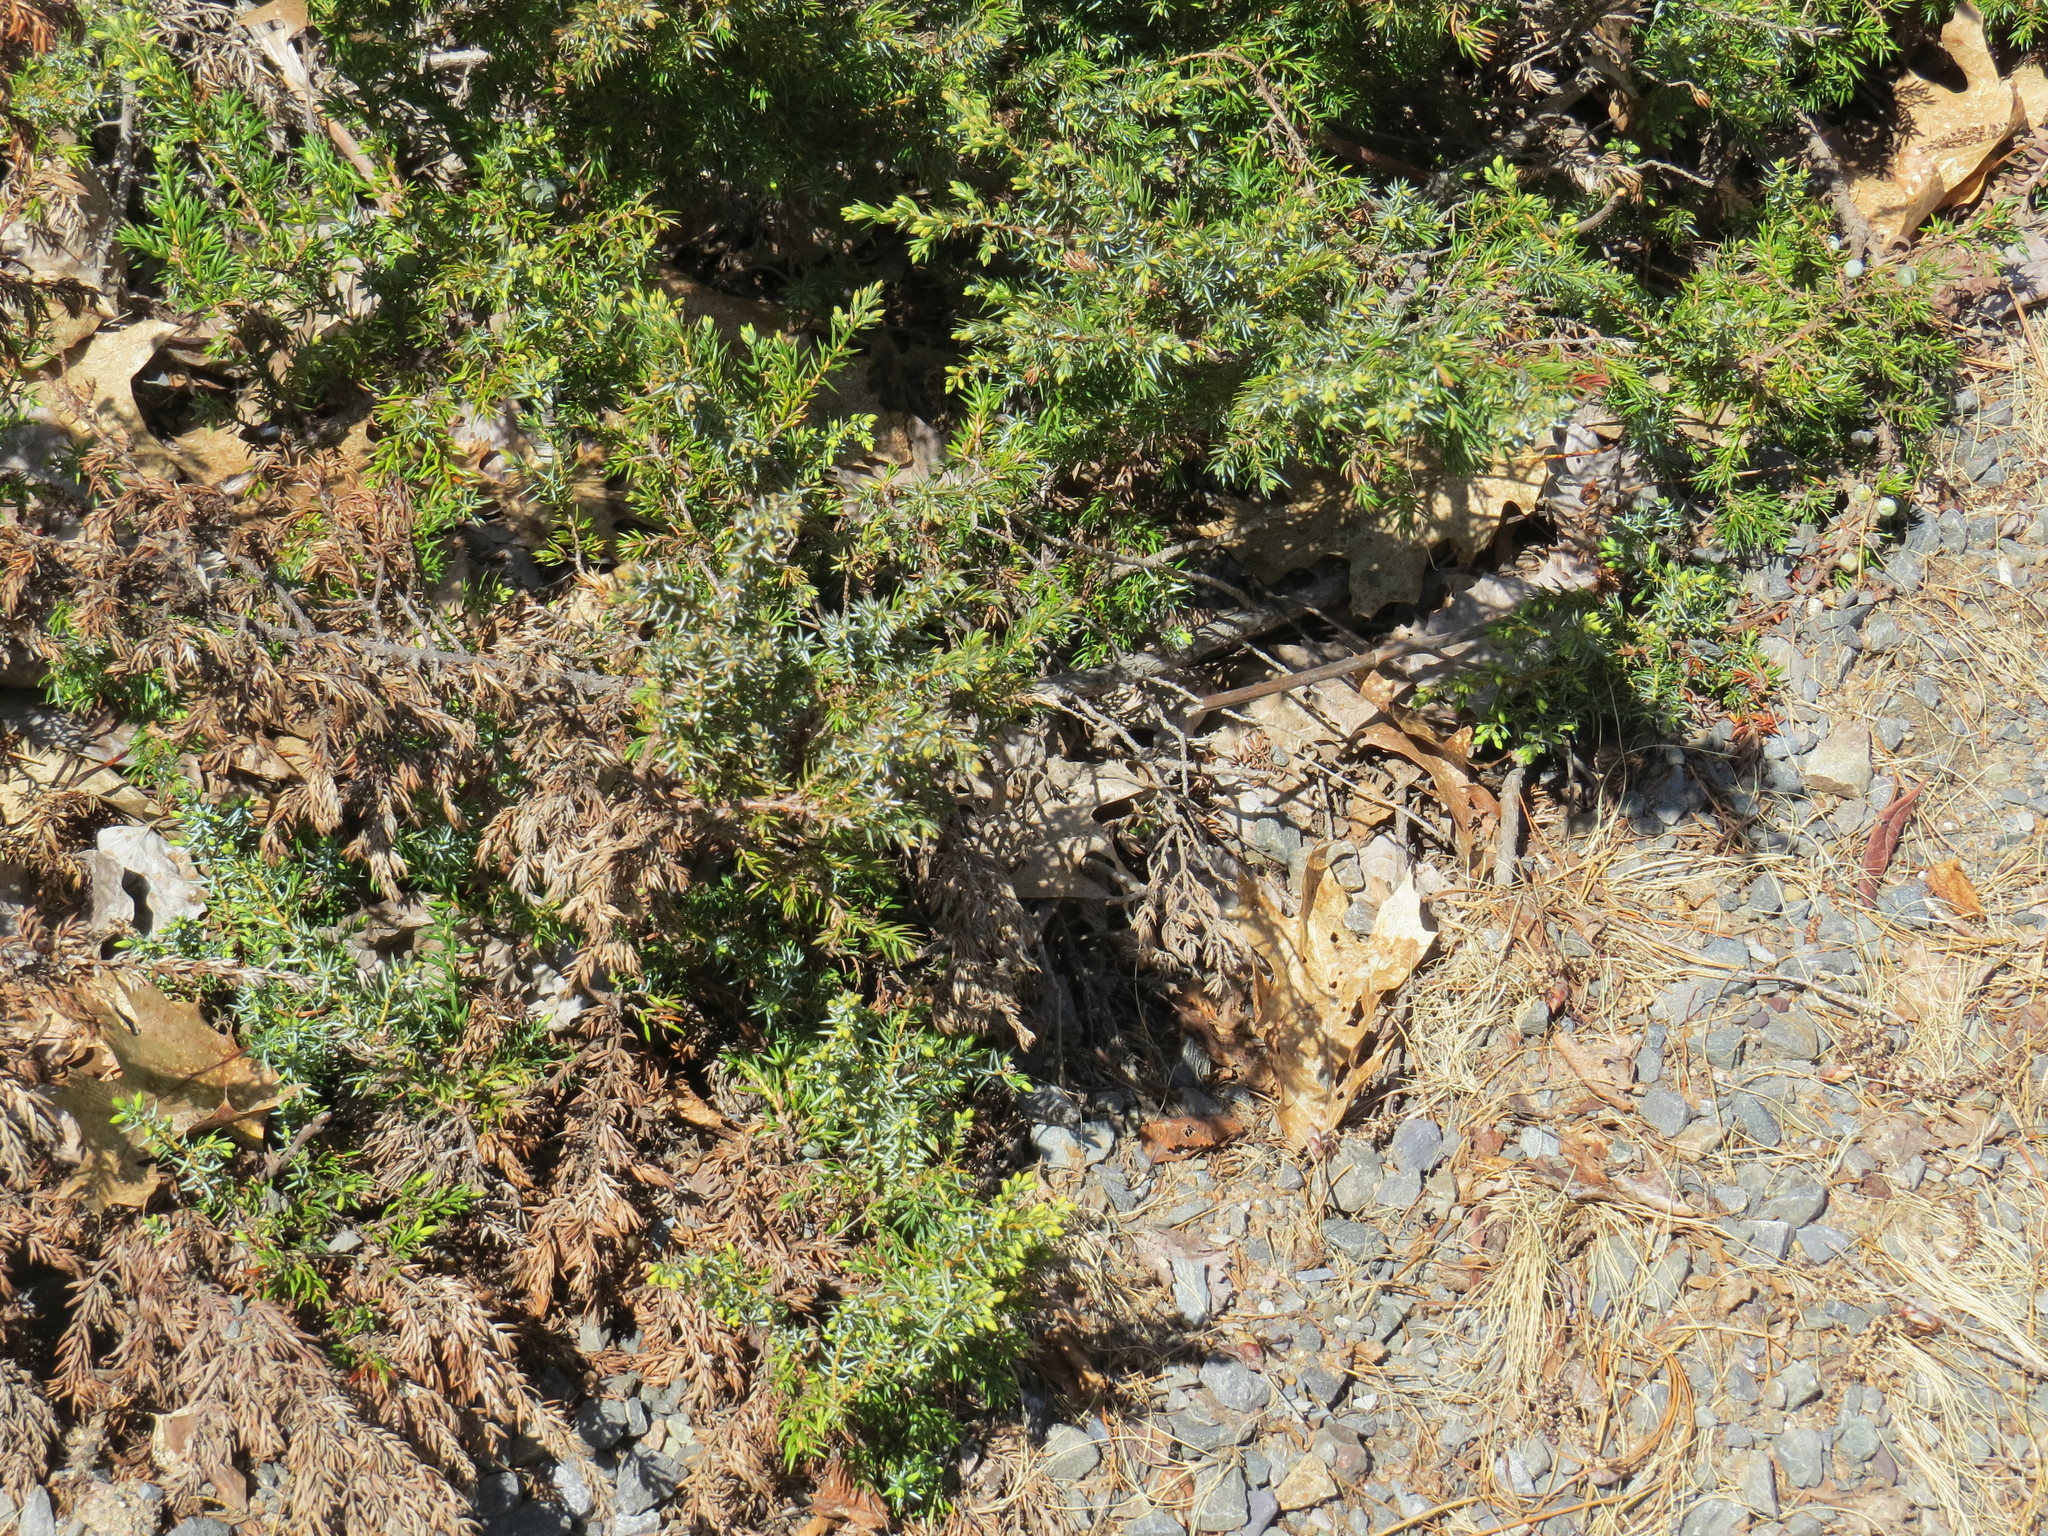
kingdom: Plantae
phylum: Tracheophyta
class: Pinopsida
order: Pinales
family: Cupressaceae
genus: Juniperus
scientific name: Juniperus horizontalis
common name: Creeping juniper
